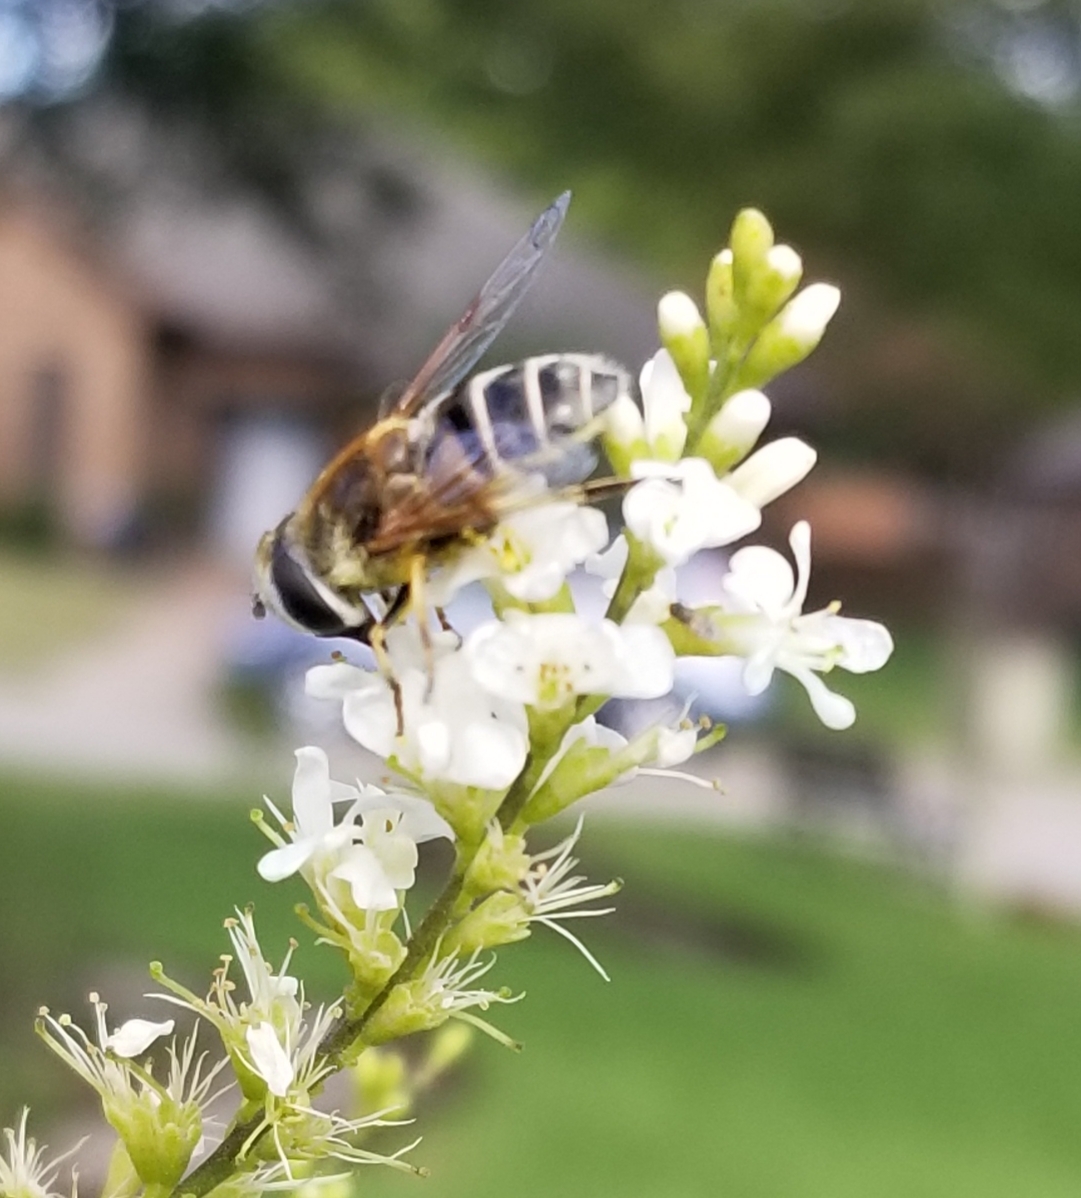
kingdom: Animalia
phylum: Arthropoda
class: Insecta
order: Diptera
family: Syrphidae
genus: Eristalis
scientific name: Eristalis stipator
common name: Yellow-shouldered drone fly
